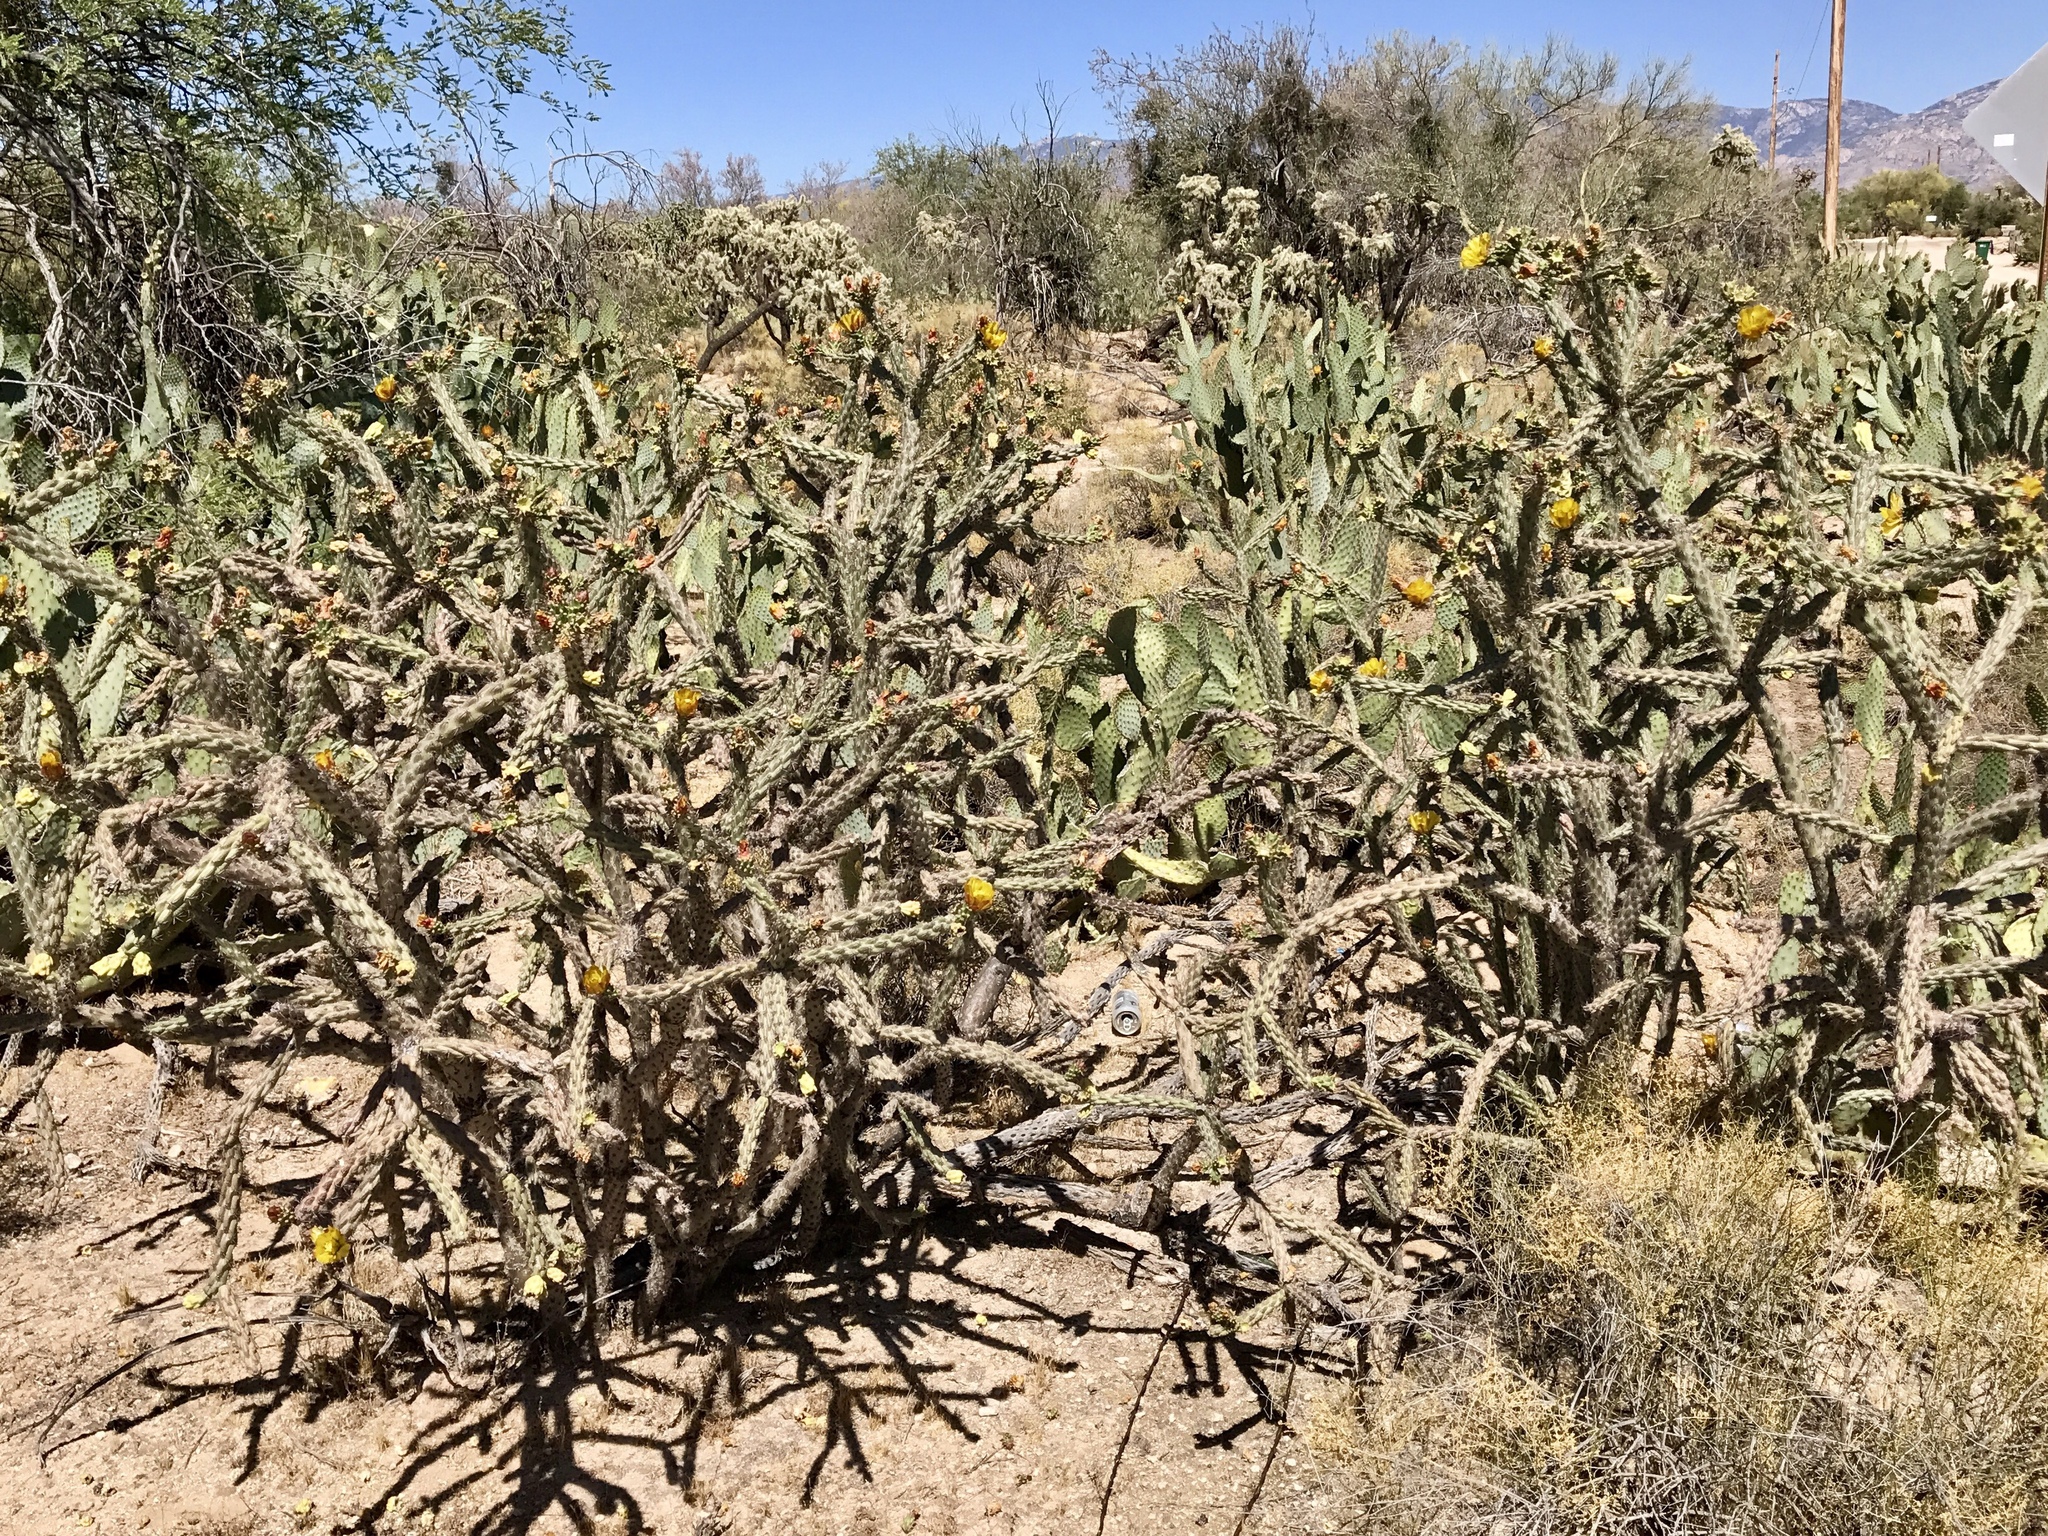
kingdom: Plantae
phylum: Tracheophyta
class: Magnoliopsida
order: Caryophyllales
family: Cactaceae
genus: Cylindropuntia
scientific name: Cylindropuntia thurberi
